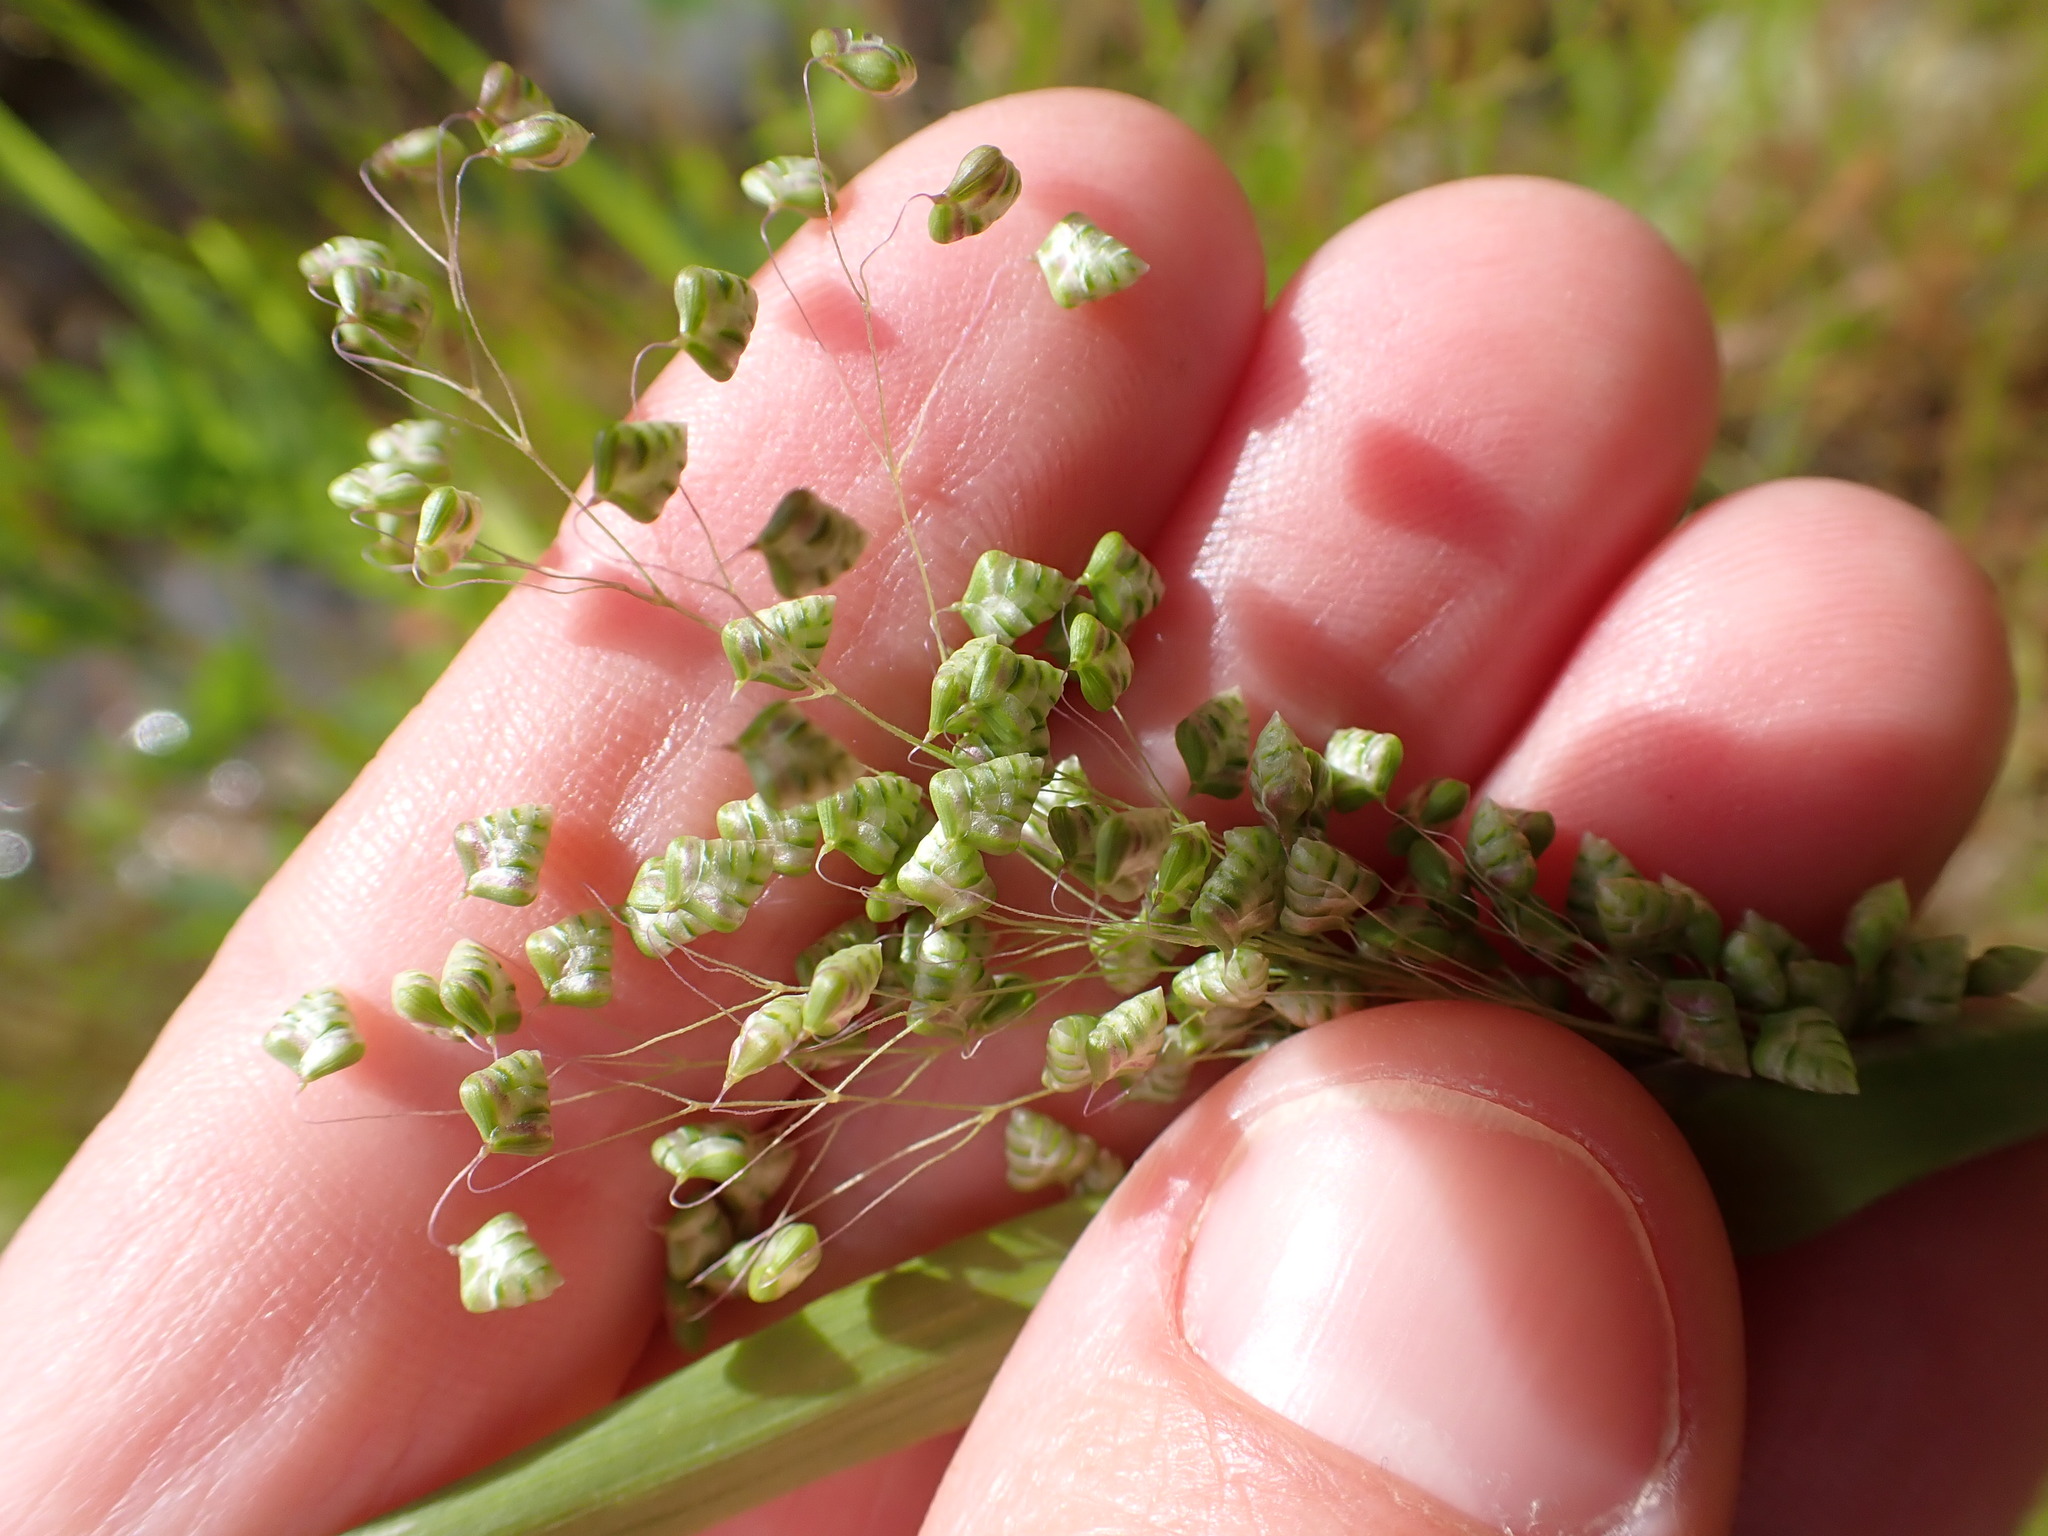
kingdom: Plantae
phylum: Tracheophyta
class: Liliopsida
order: Poales
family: Poaceae
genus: Briza
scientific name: Briza minor
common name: Lesser quaking-grass
